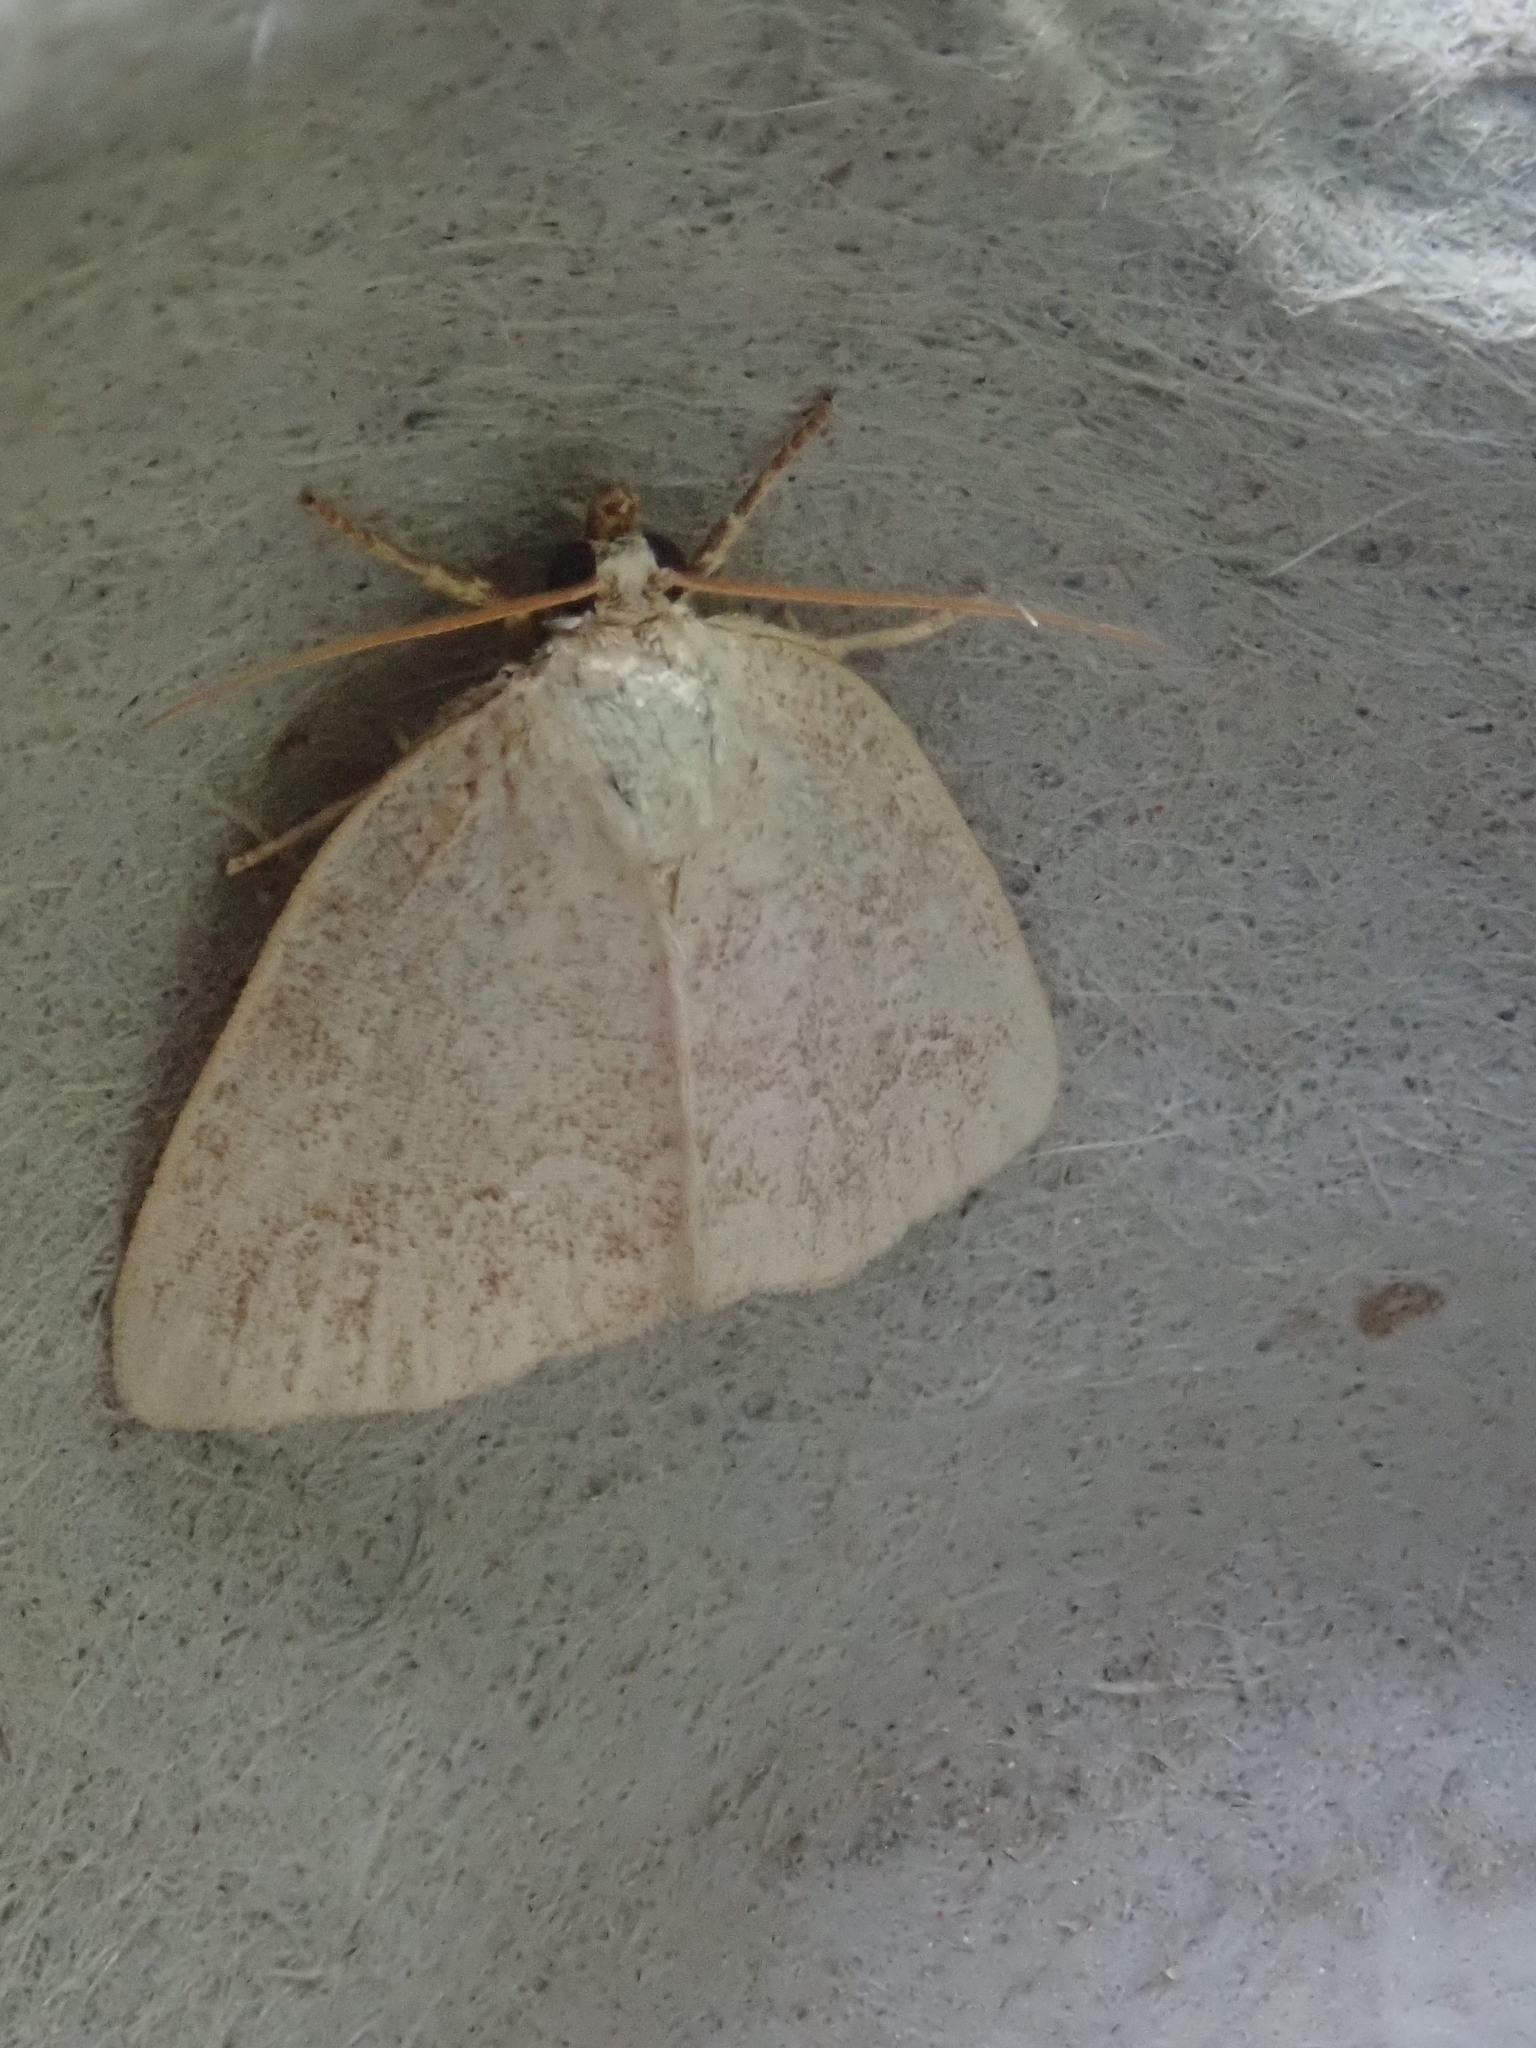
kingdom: Animalia
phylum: Arthropoda
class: Insecta
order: Lepidoptera
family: Noctuidae
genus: Protodeltote
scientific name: Protodeltote albidula
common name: Pale glyph
